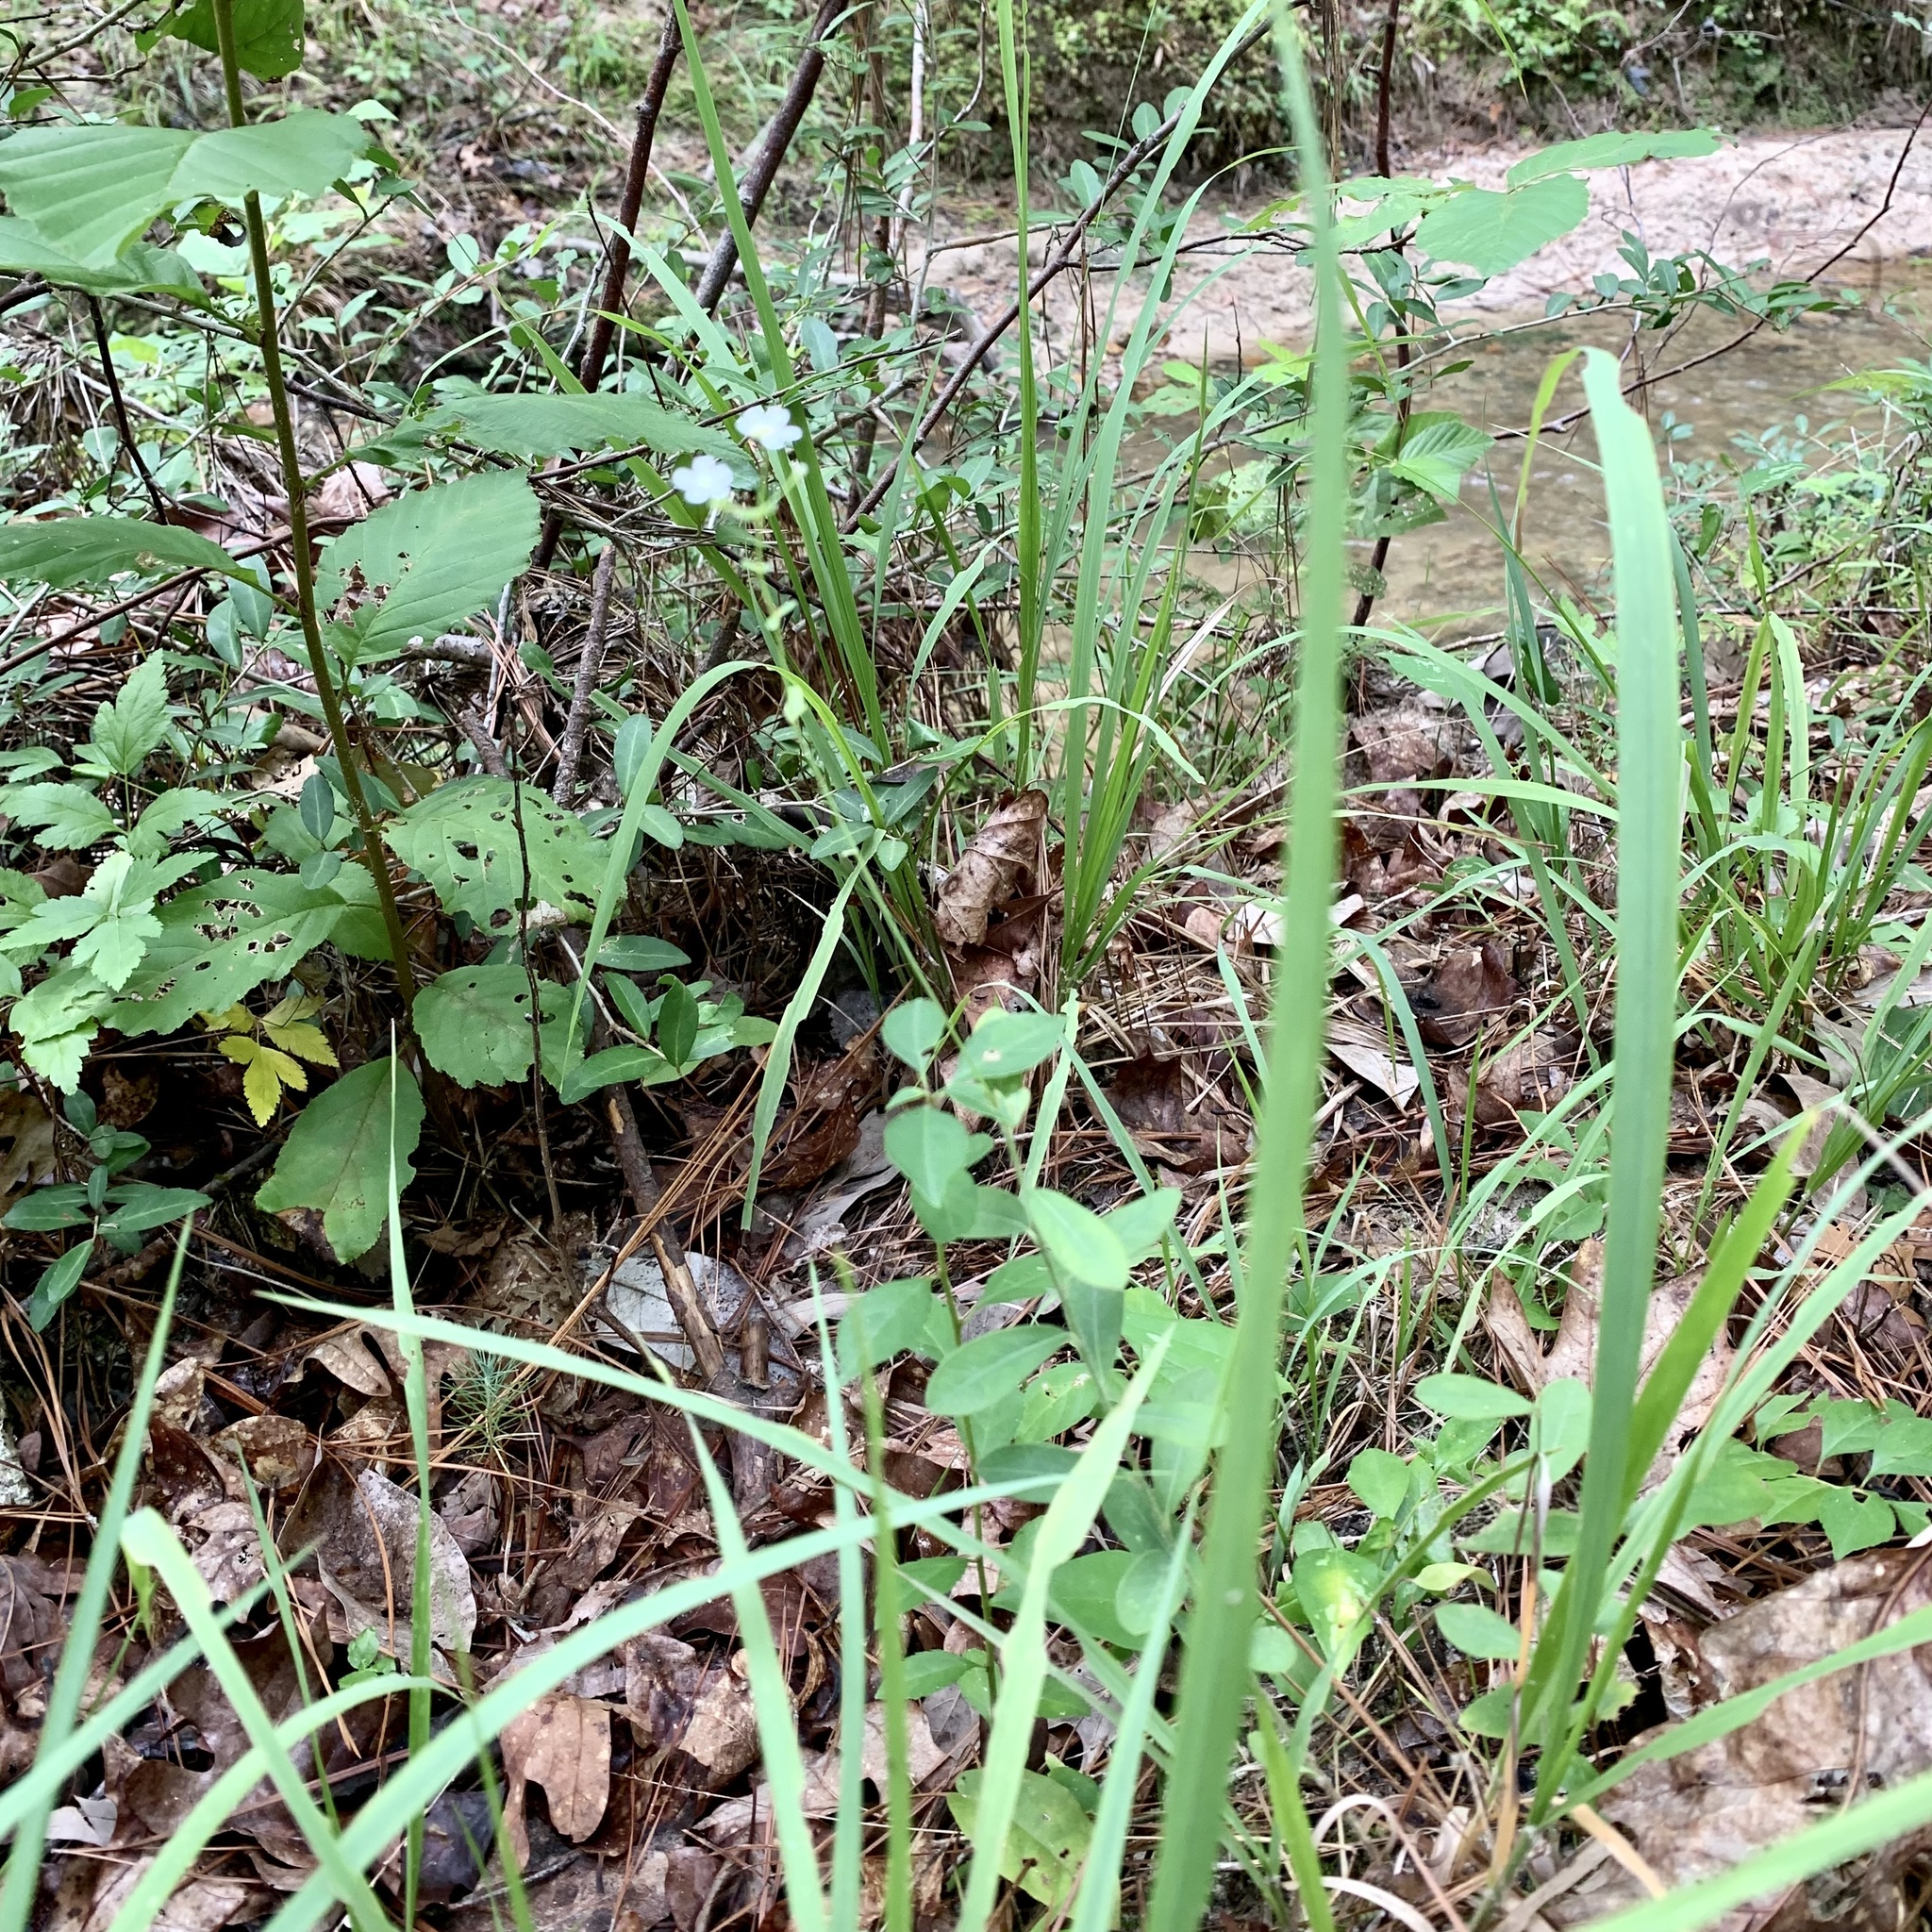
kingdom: Plantae
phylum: Tracheophyta
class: Magnoliopsida
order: Malpighiales
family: Euphorbiaceae
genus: Euphorbia
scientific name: Euphorbia corollata
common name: Flowering spurge
